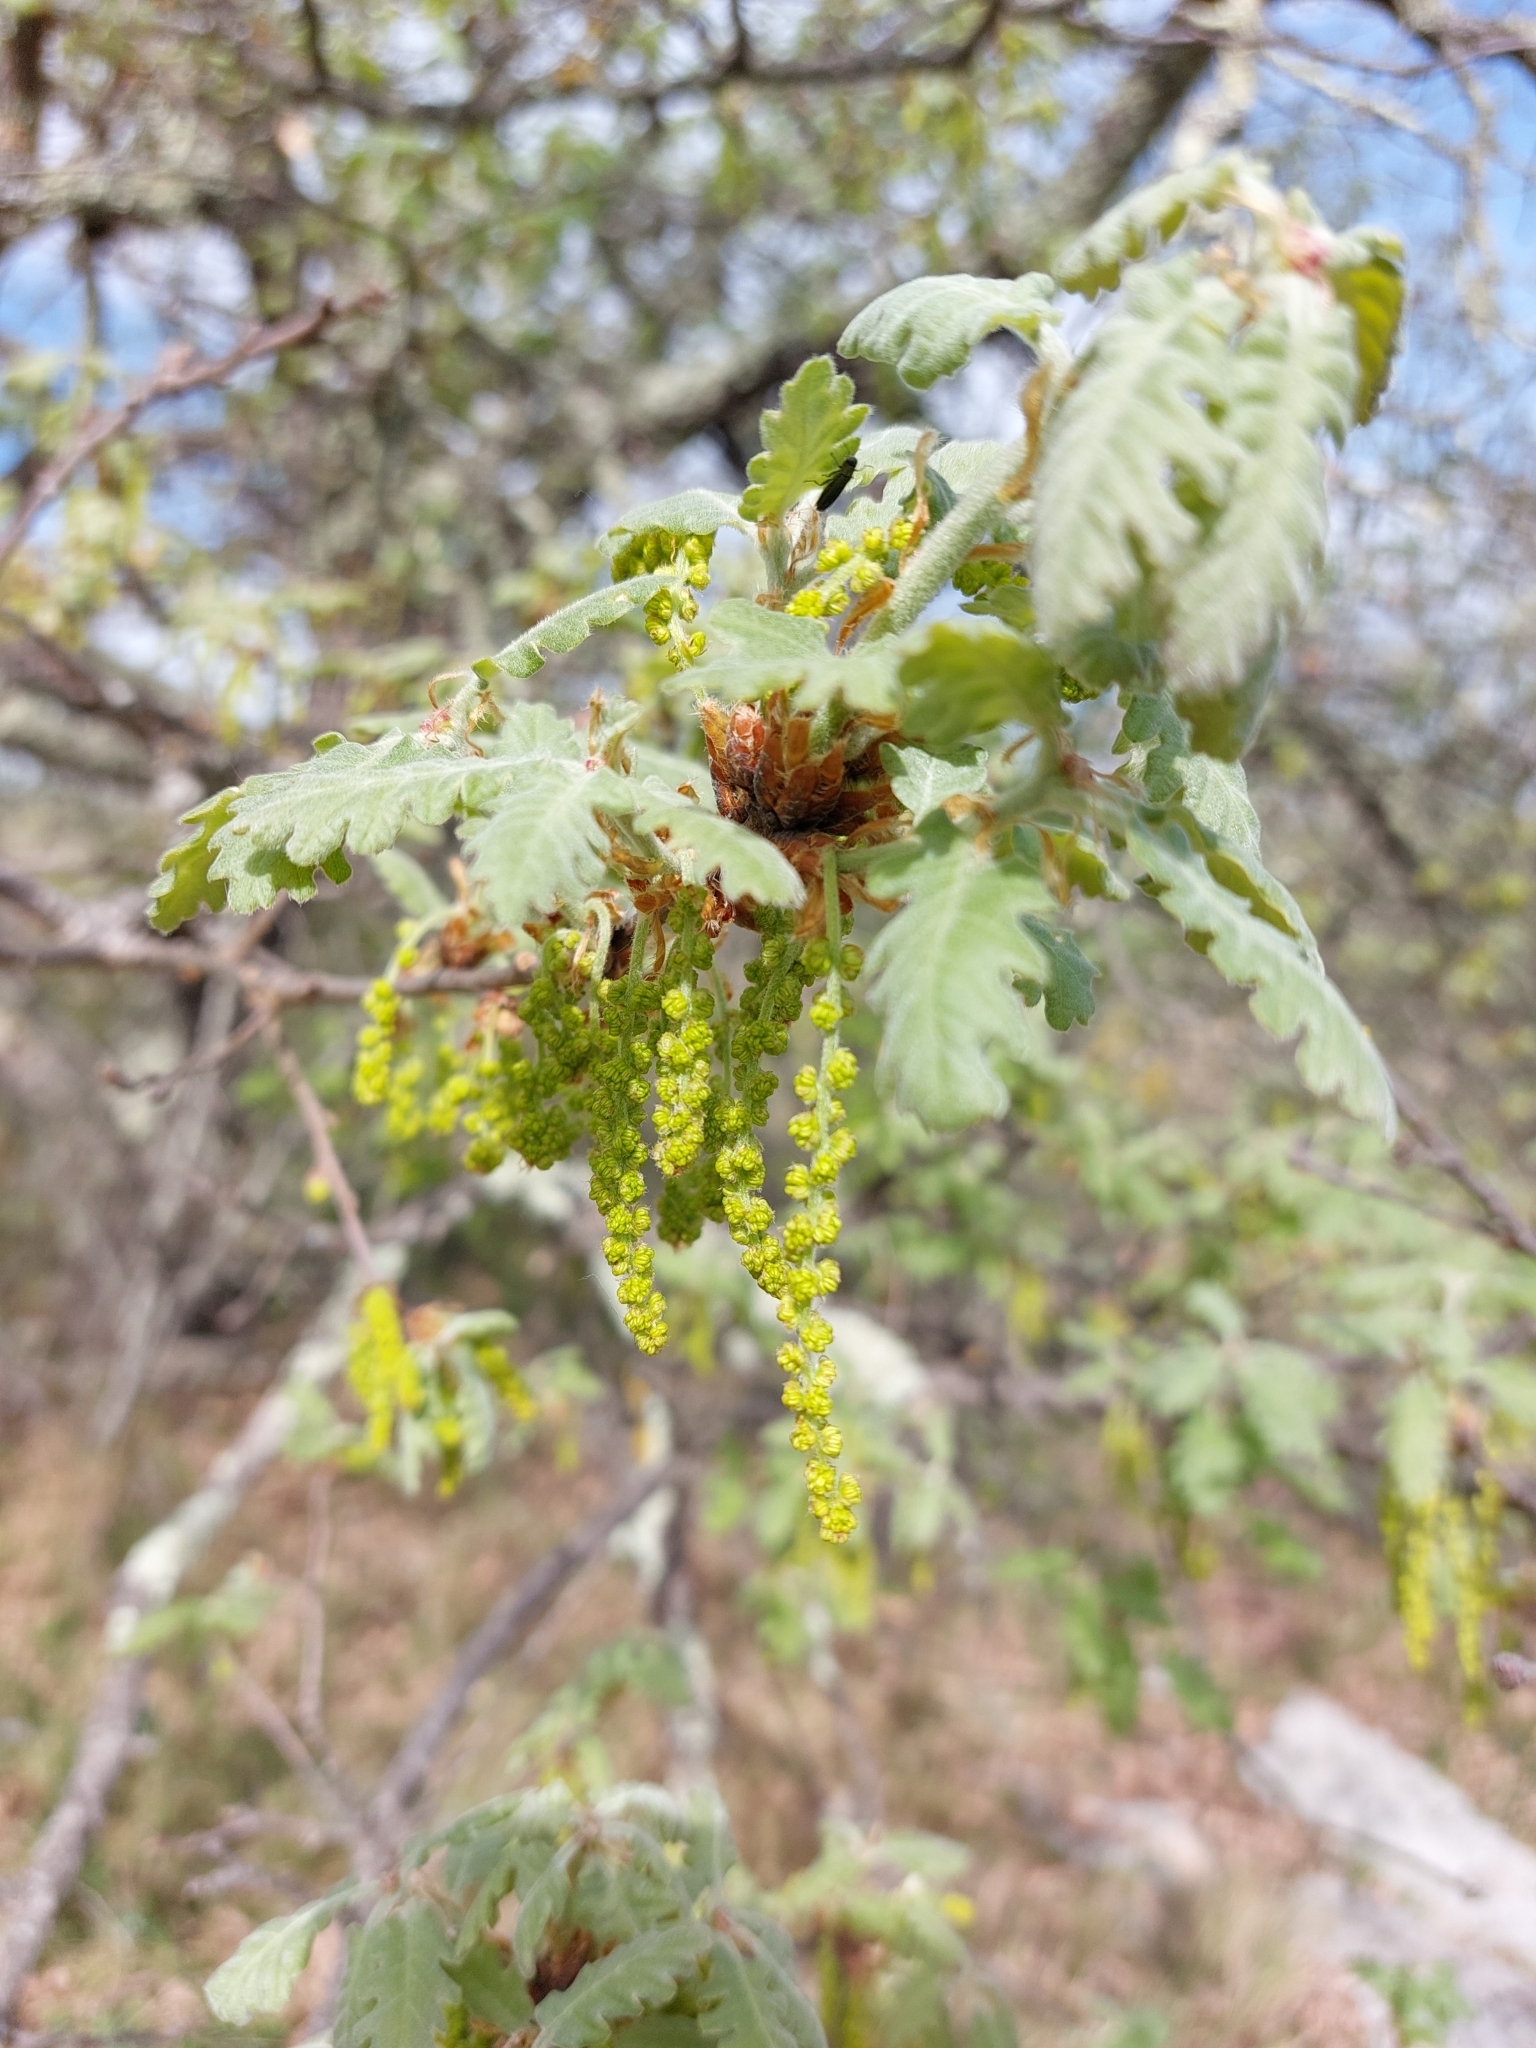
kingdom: Plantae
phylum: Tracheophyta
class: Magnoliopsida
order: Fagales
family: Fagaceae
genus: Quercus
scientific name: Quercus pubescens
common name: Downy oak
